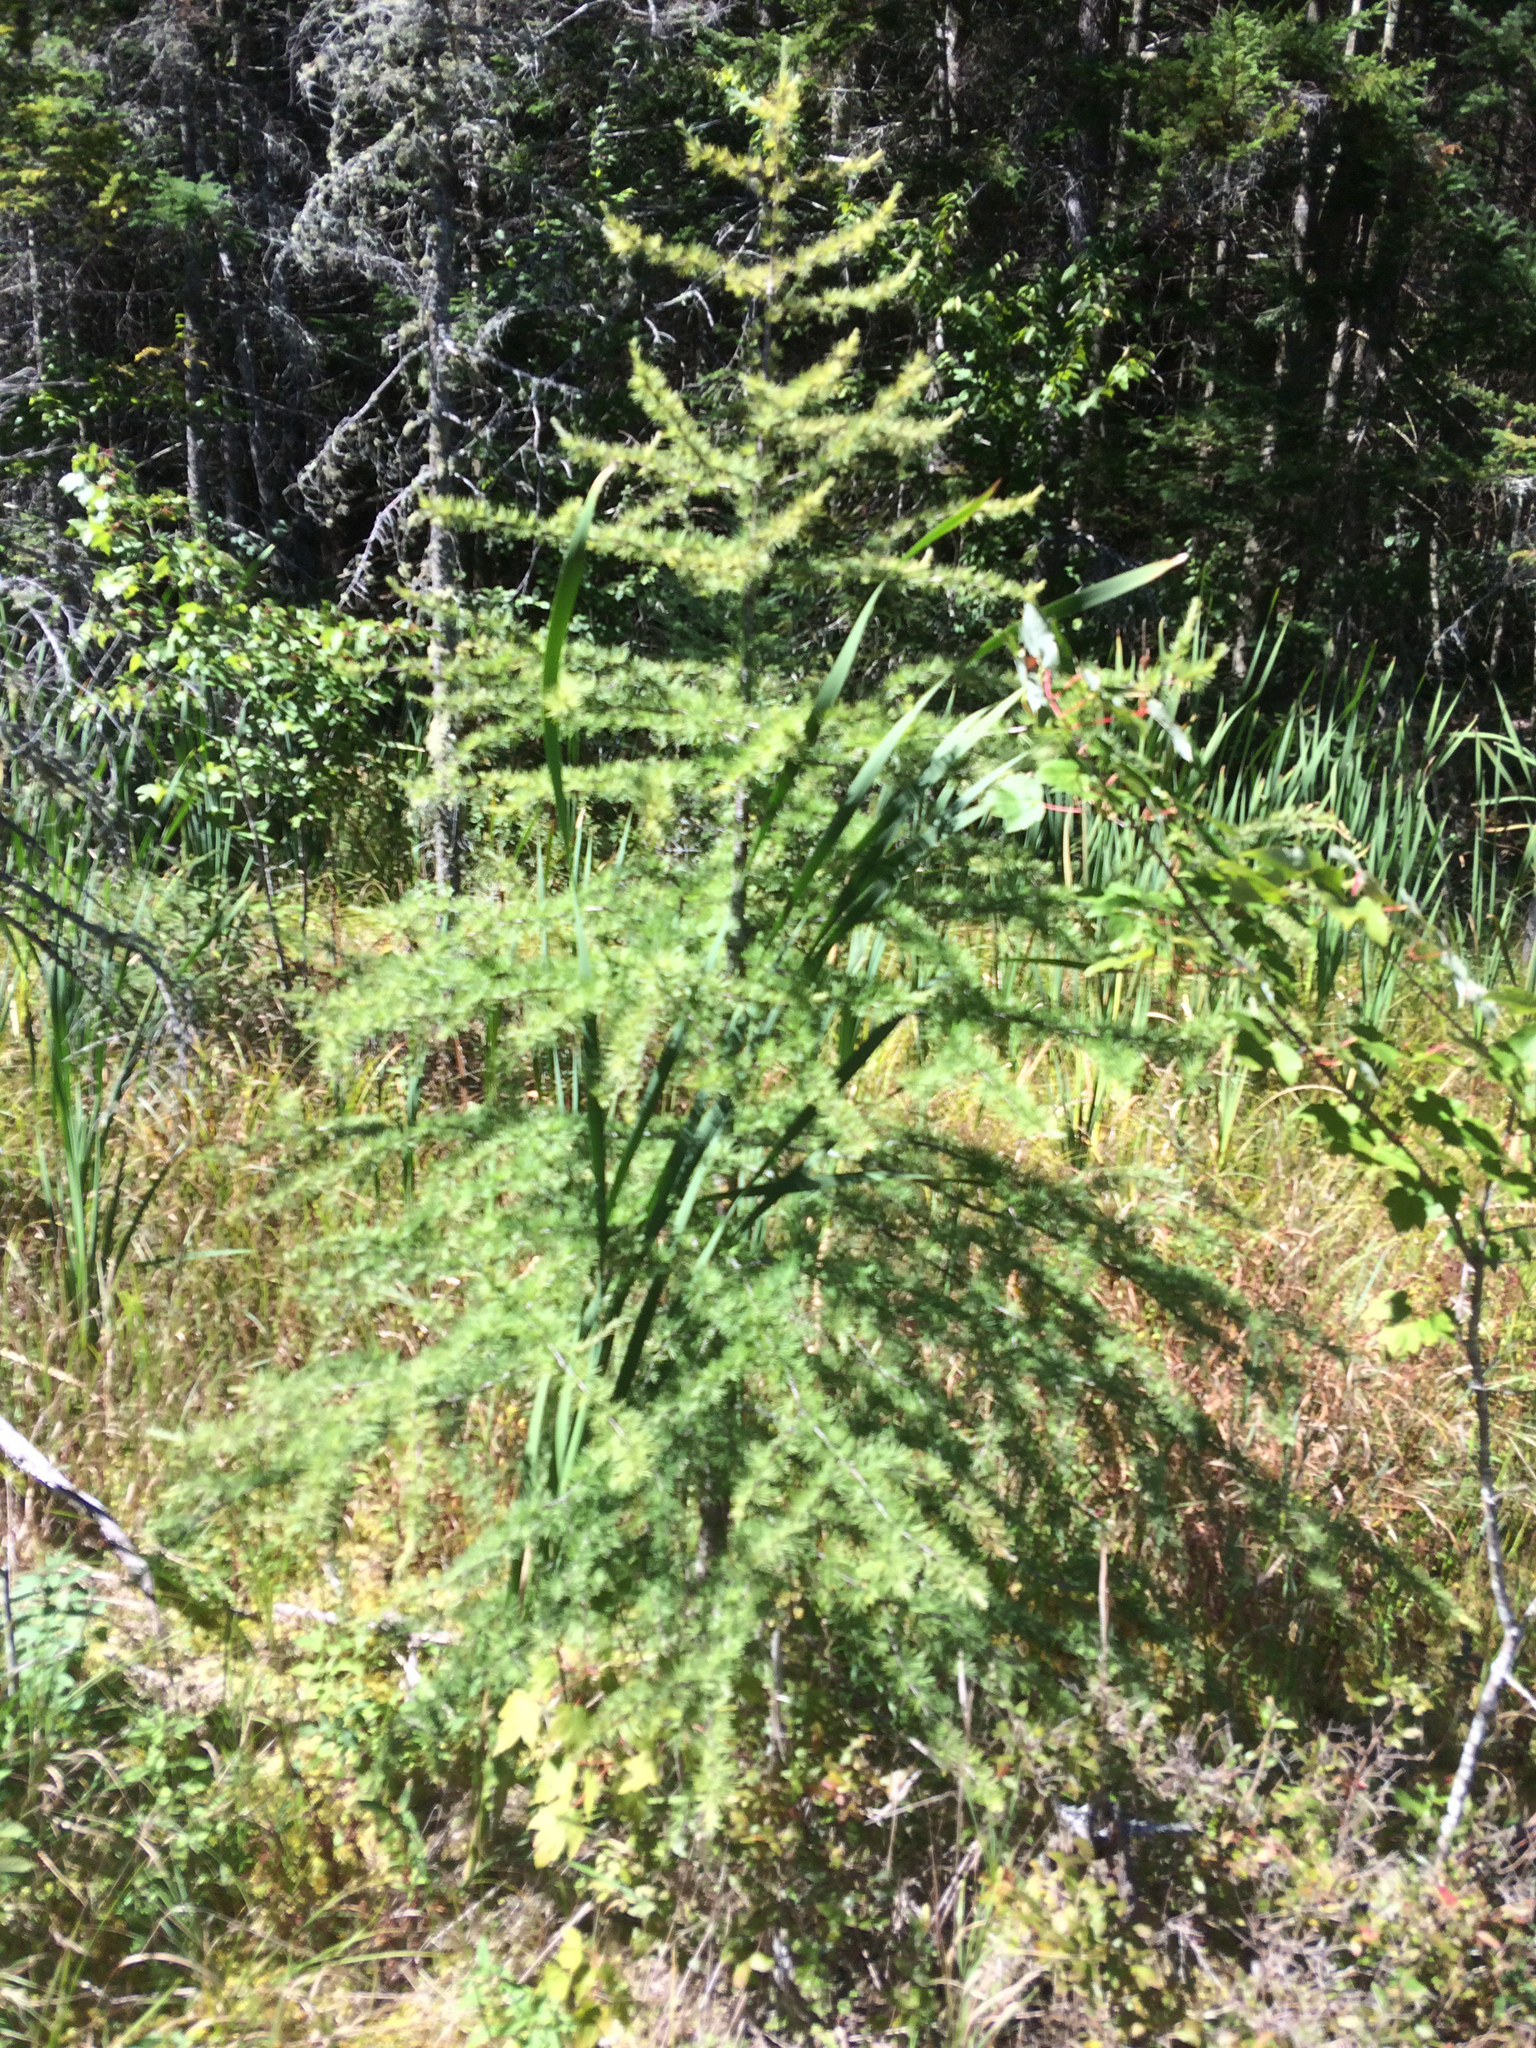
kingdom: Plantae
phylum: Tracheophyta
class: Pinopsida
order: Pinales
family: Pinaceae
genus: Larix
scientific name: Larix laricina
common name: American larch
